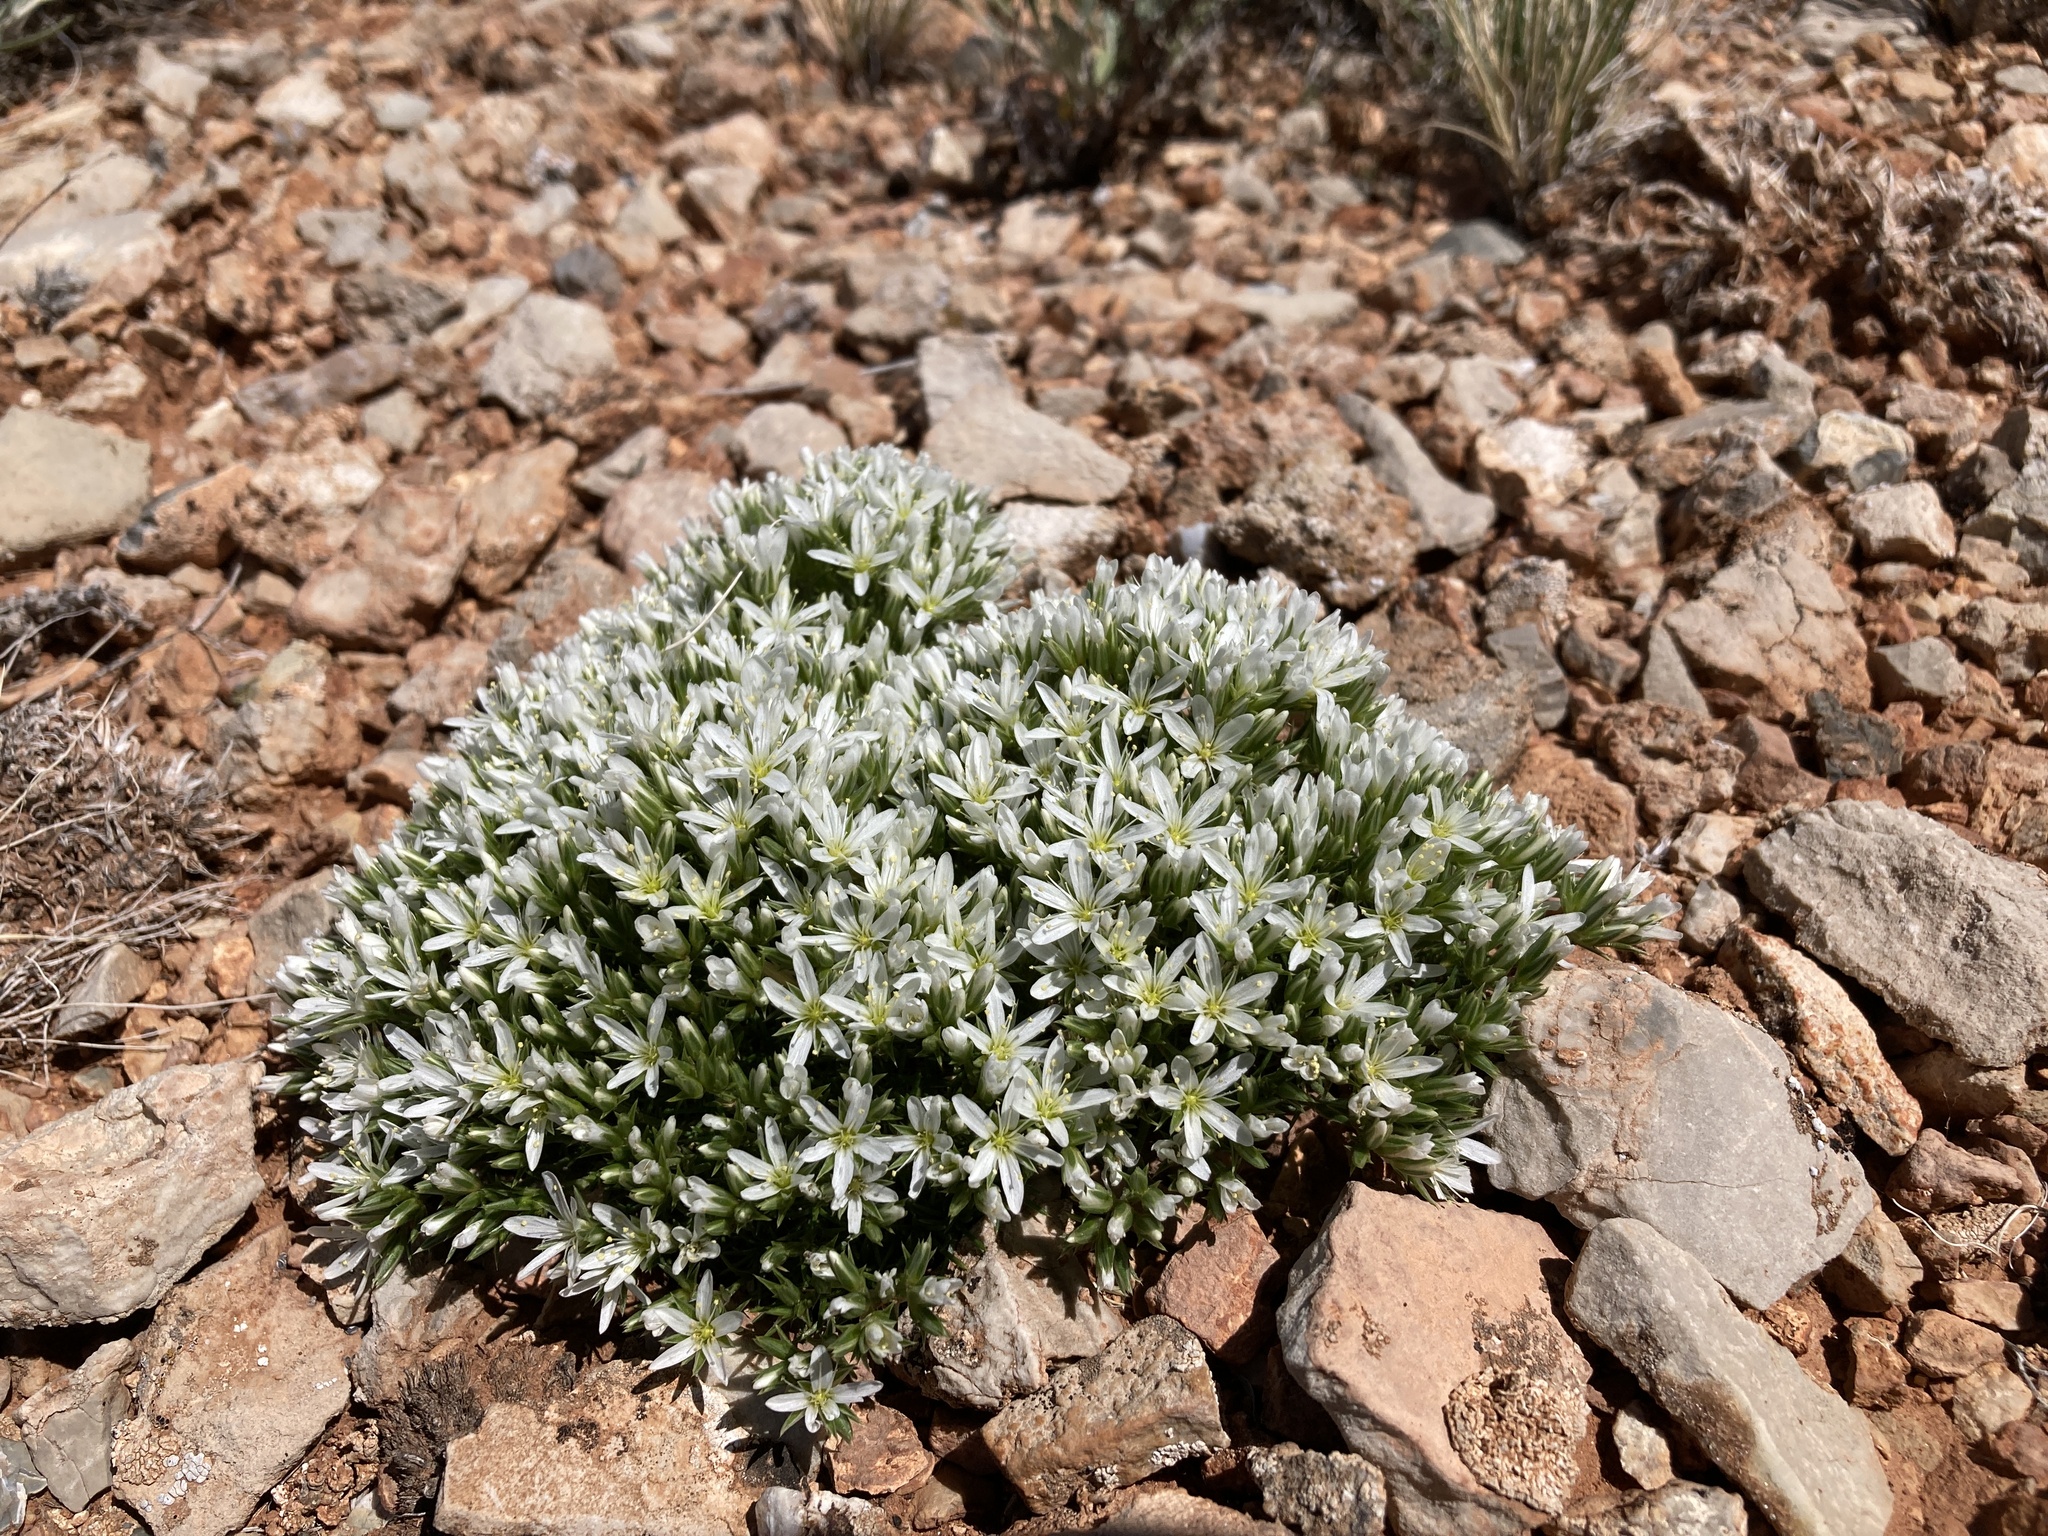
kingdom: Plantae
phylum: Tracheophyta
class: Magnoliopsida
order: Caryophyllales
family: Caryophyllaceae
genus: Eremogone
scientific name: Eremogone hookeri
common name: Hooker's sandwort
